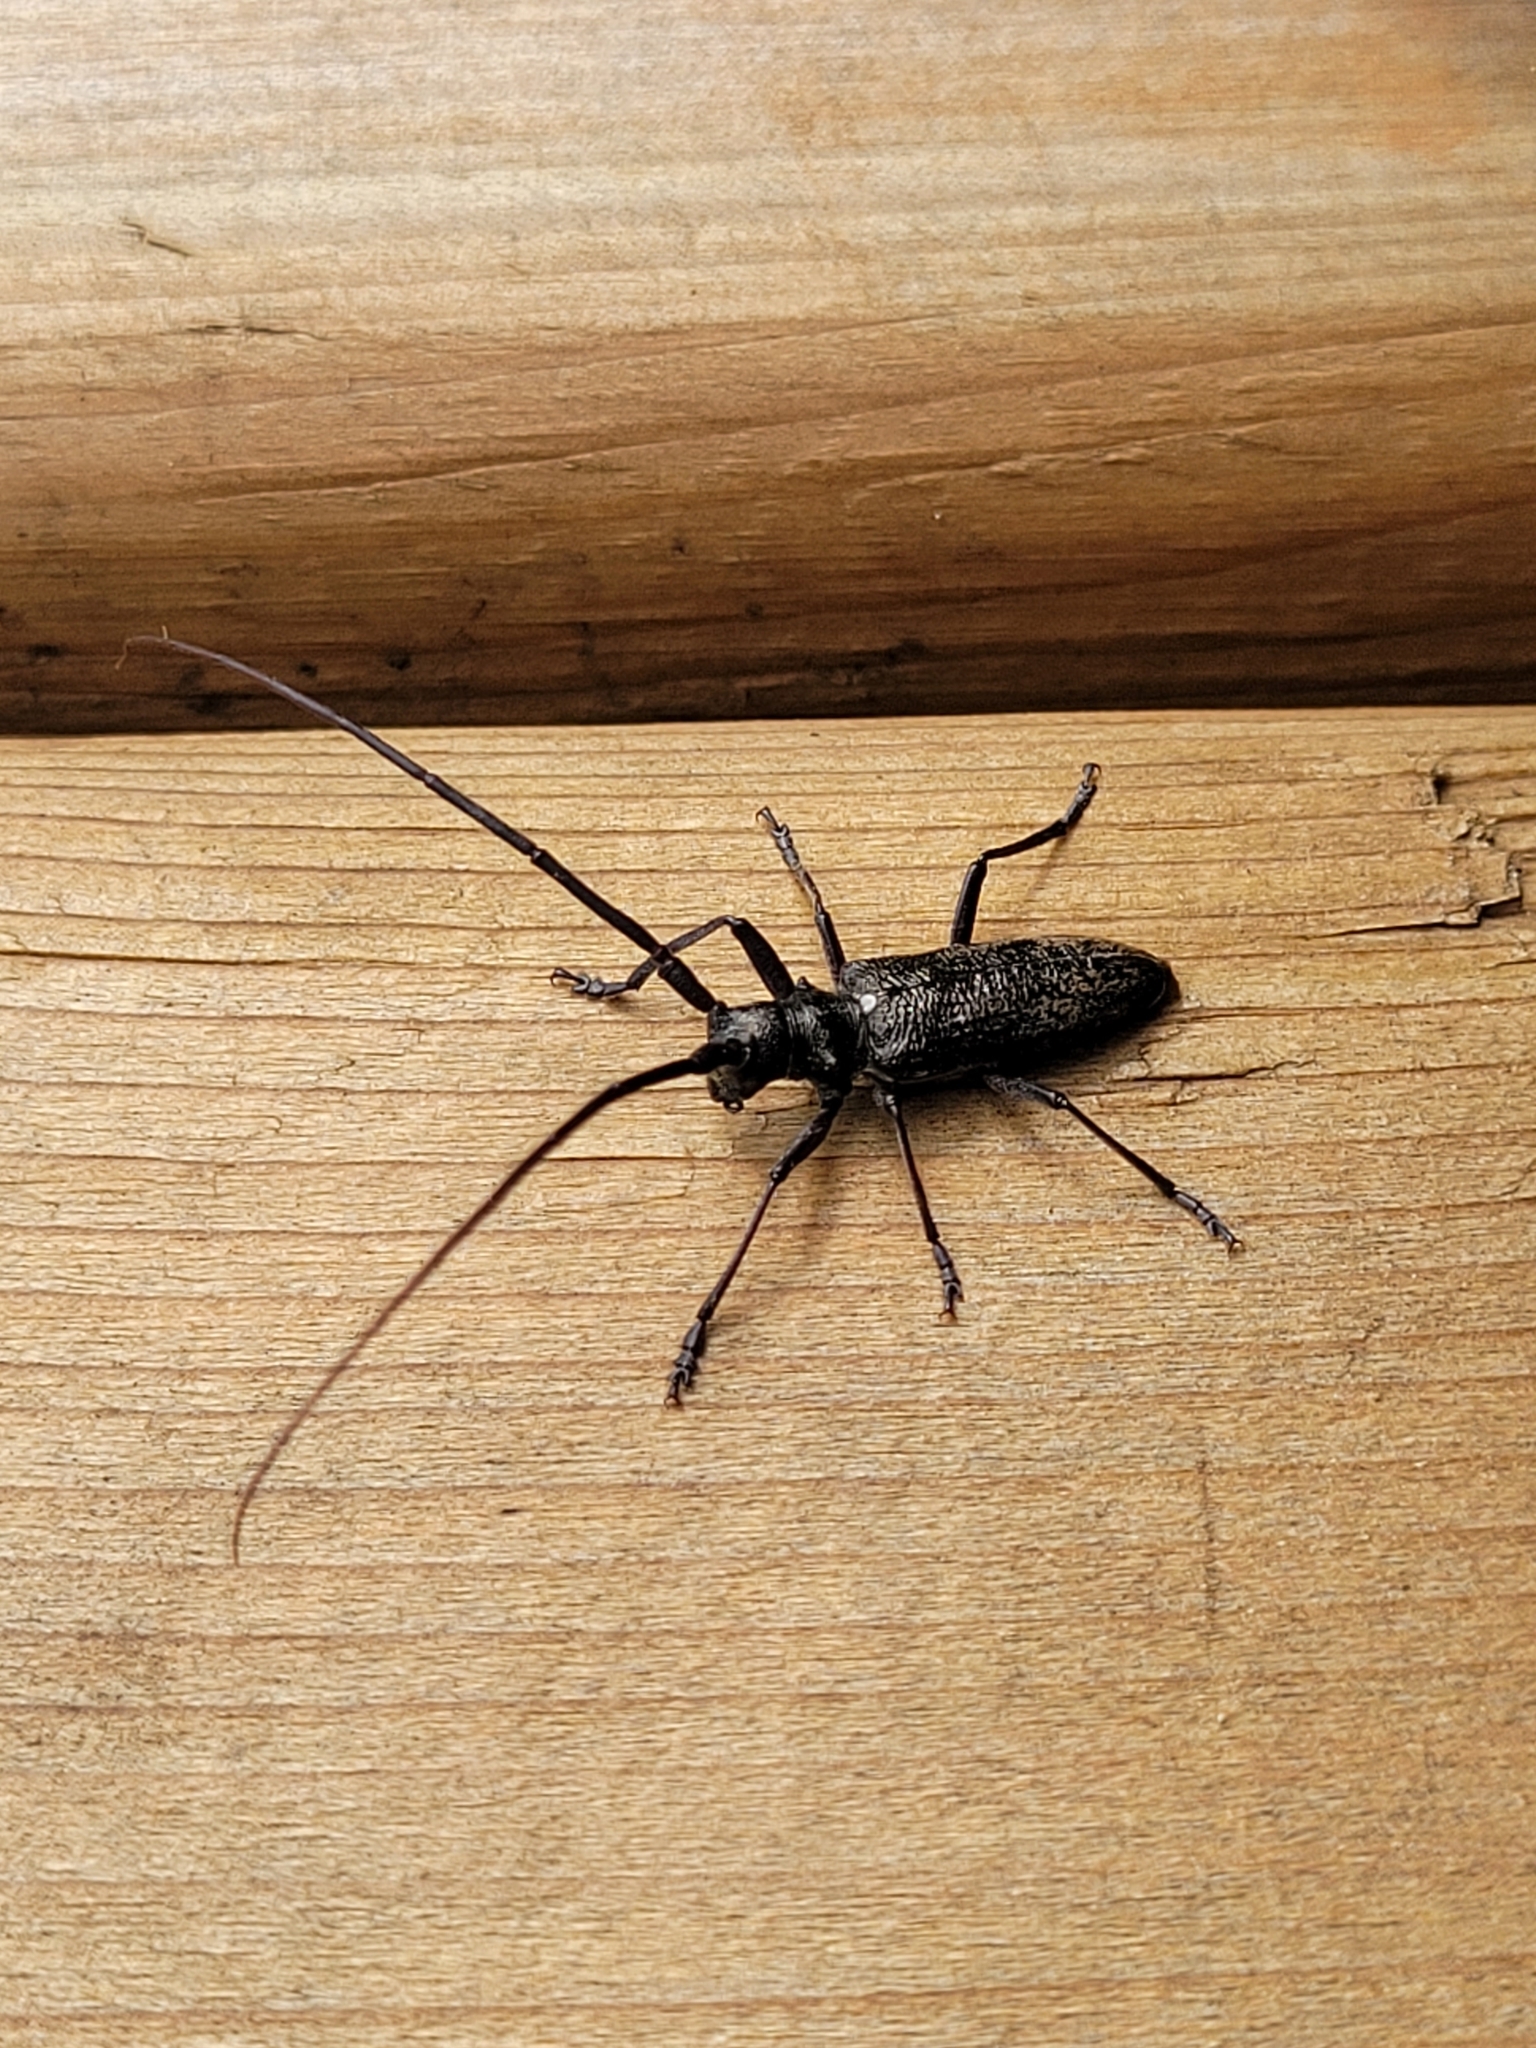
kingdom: Animalia
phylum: Arthropoda
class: Insecta
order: Coleoptera
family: Cerambycidae
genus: Monochamus
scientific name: Monochamus scutellatus
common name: White-spotted sawyer beetle
